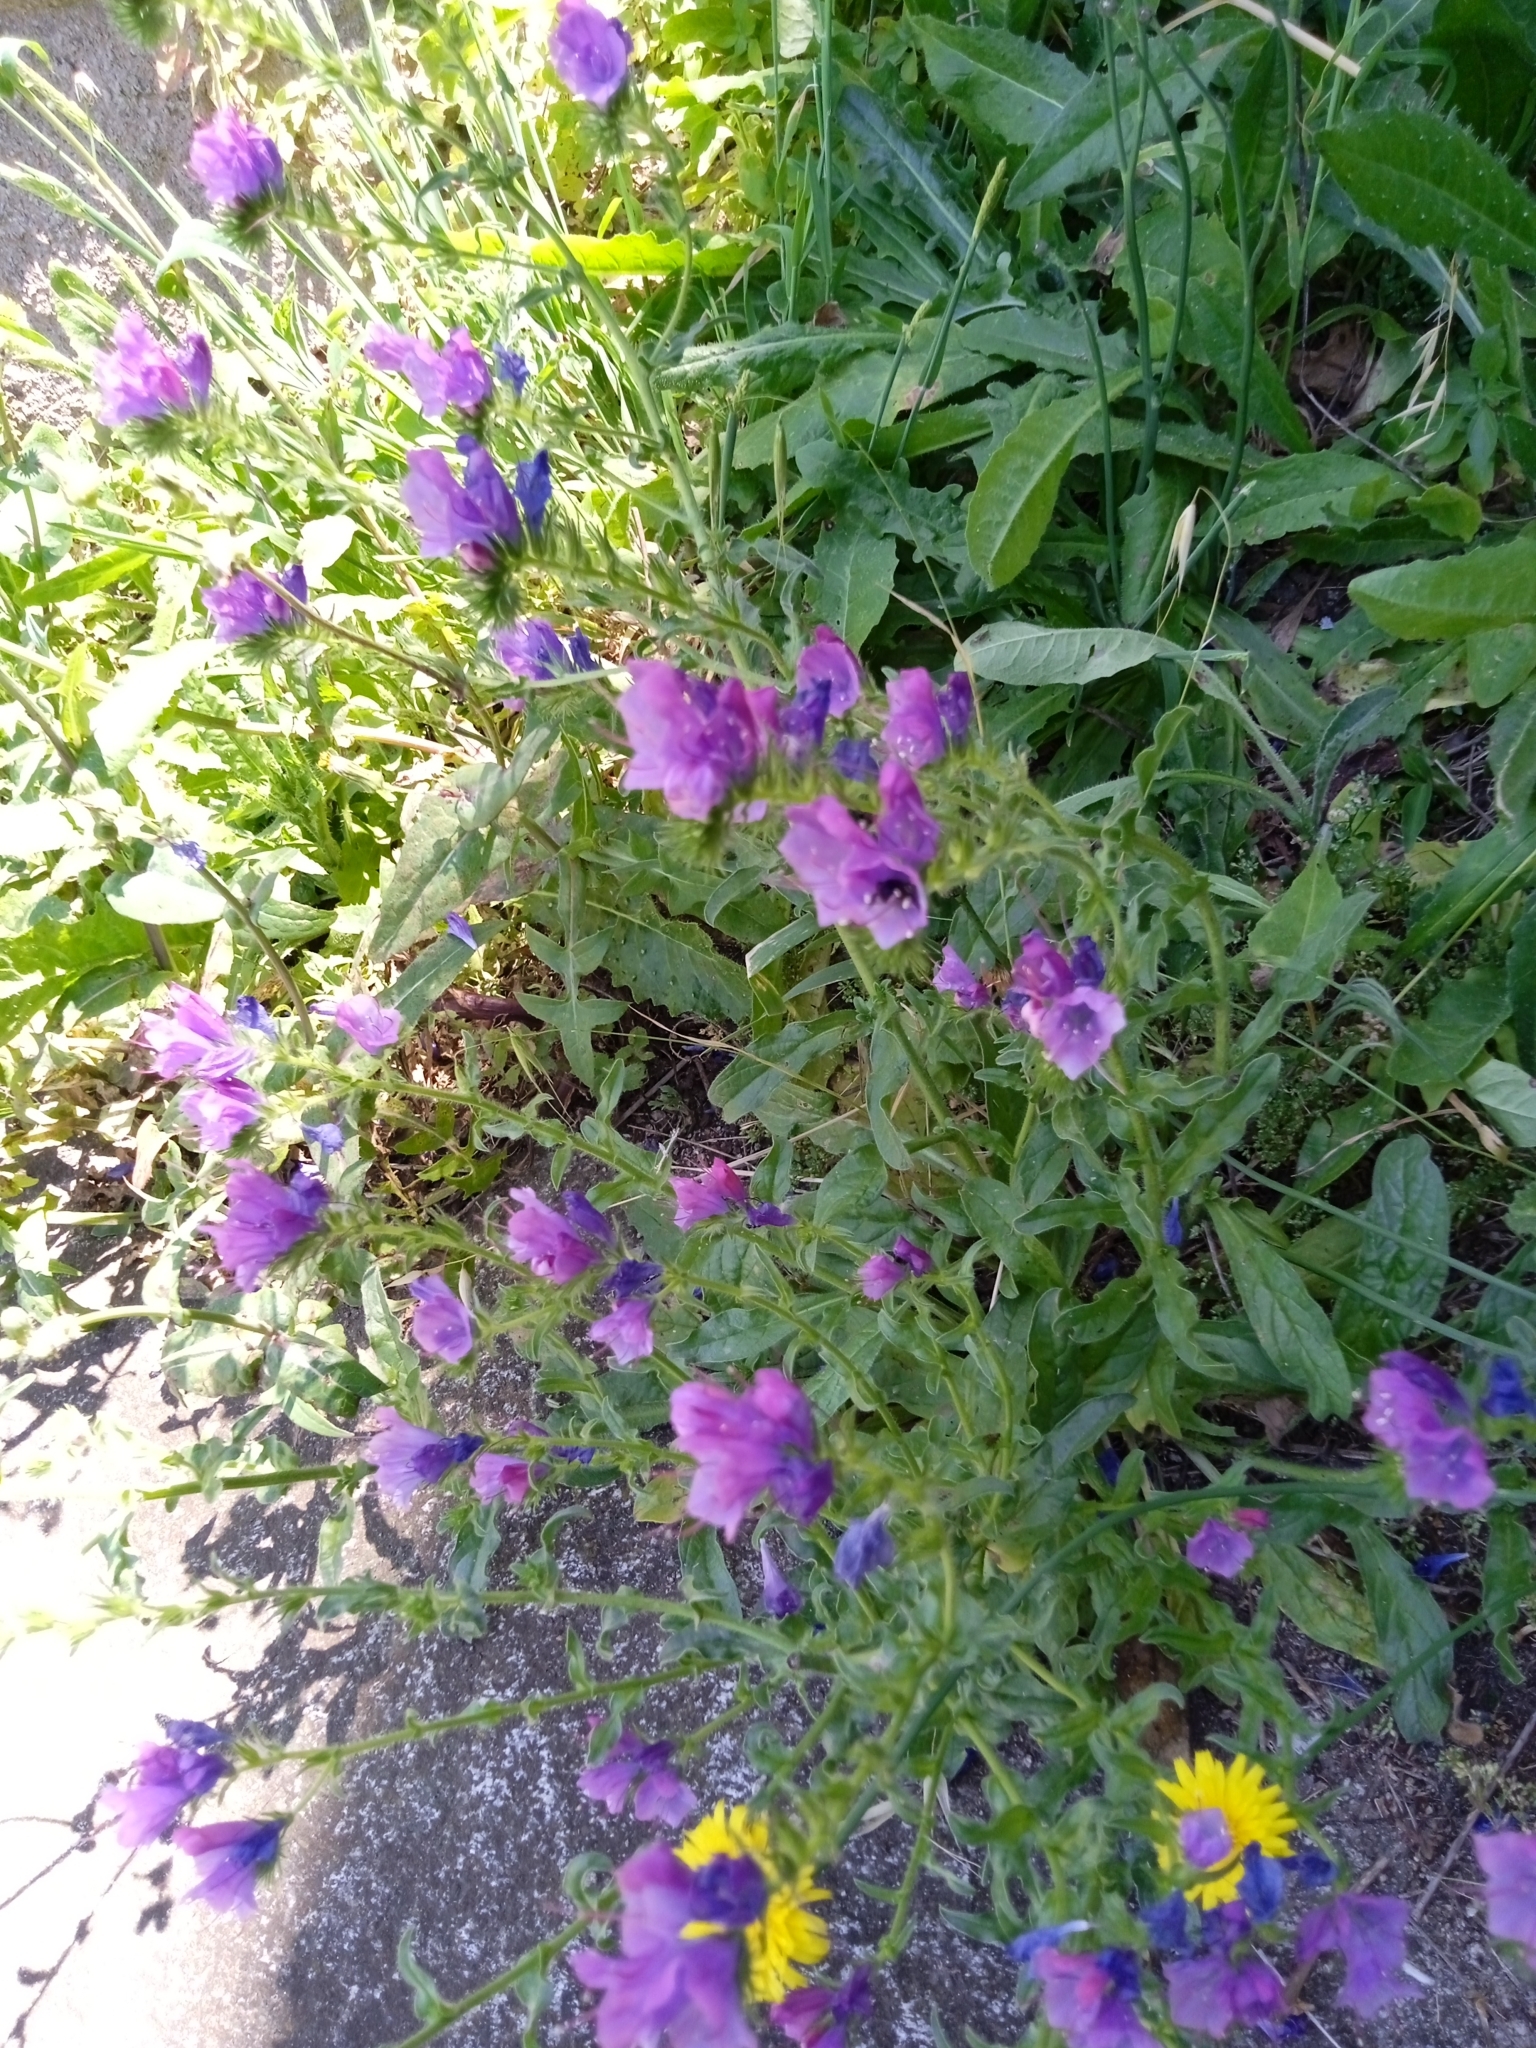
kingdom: Plantae
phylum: Tracheophyta
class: Magnoliopsida
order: Boraginales
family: Boraginaceae
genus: Echium
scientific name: Echium plantagineum
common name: Purple viper's-bugloss
